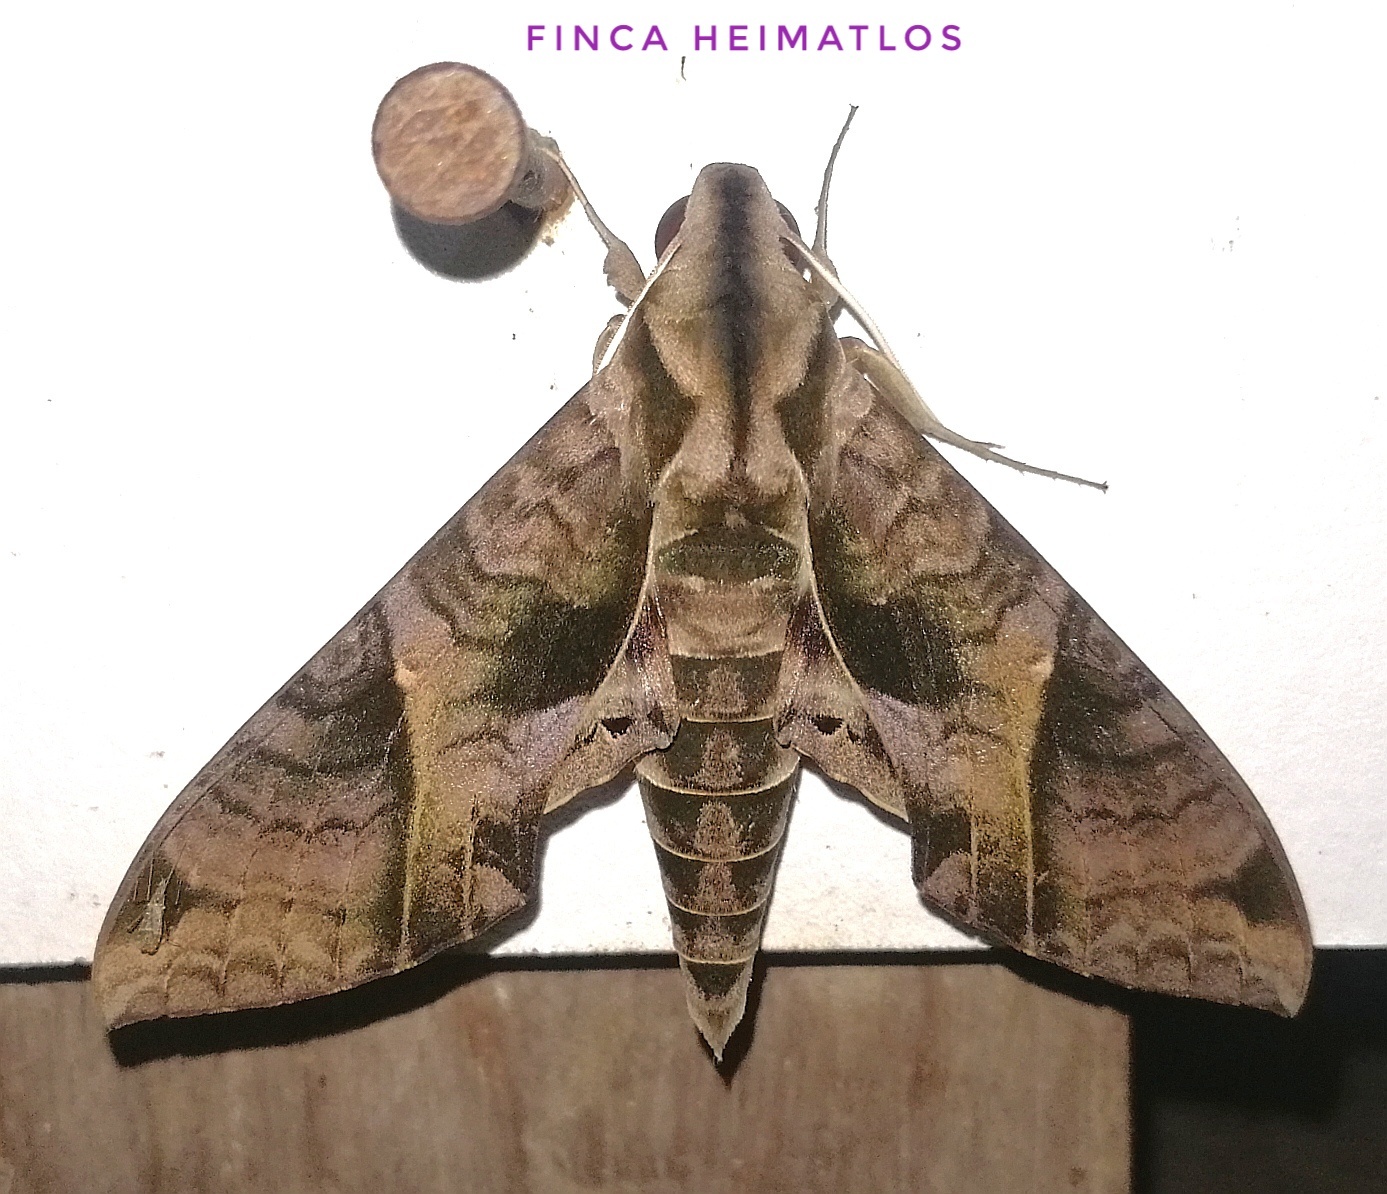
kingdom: Animalia
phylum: Arthropoda
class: Insecta
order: Lepidoptera
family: Sphingidae
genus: Eumorpha
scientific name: Eumorpha satellitia
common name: Satellite sphinx
